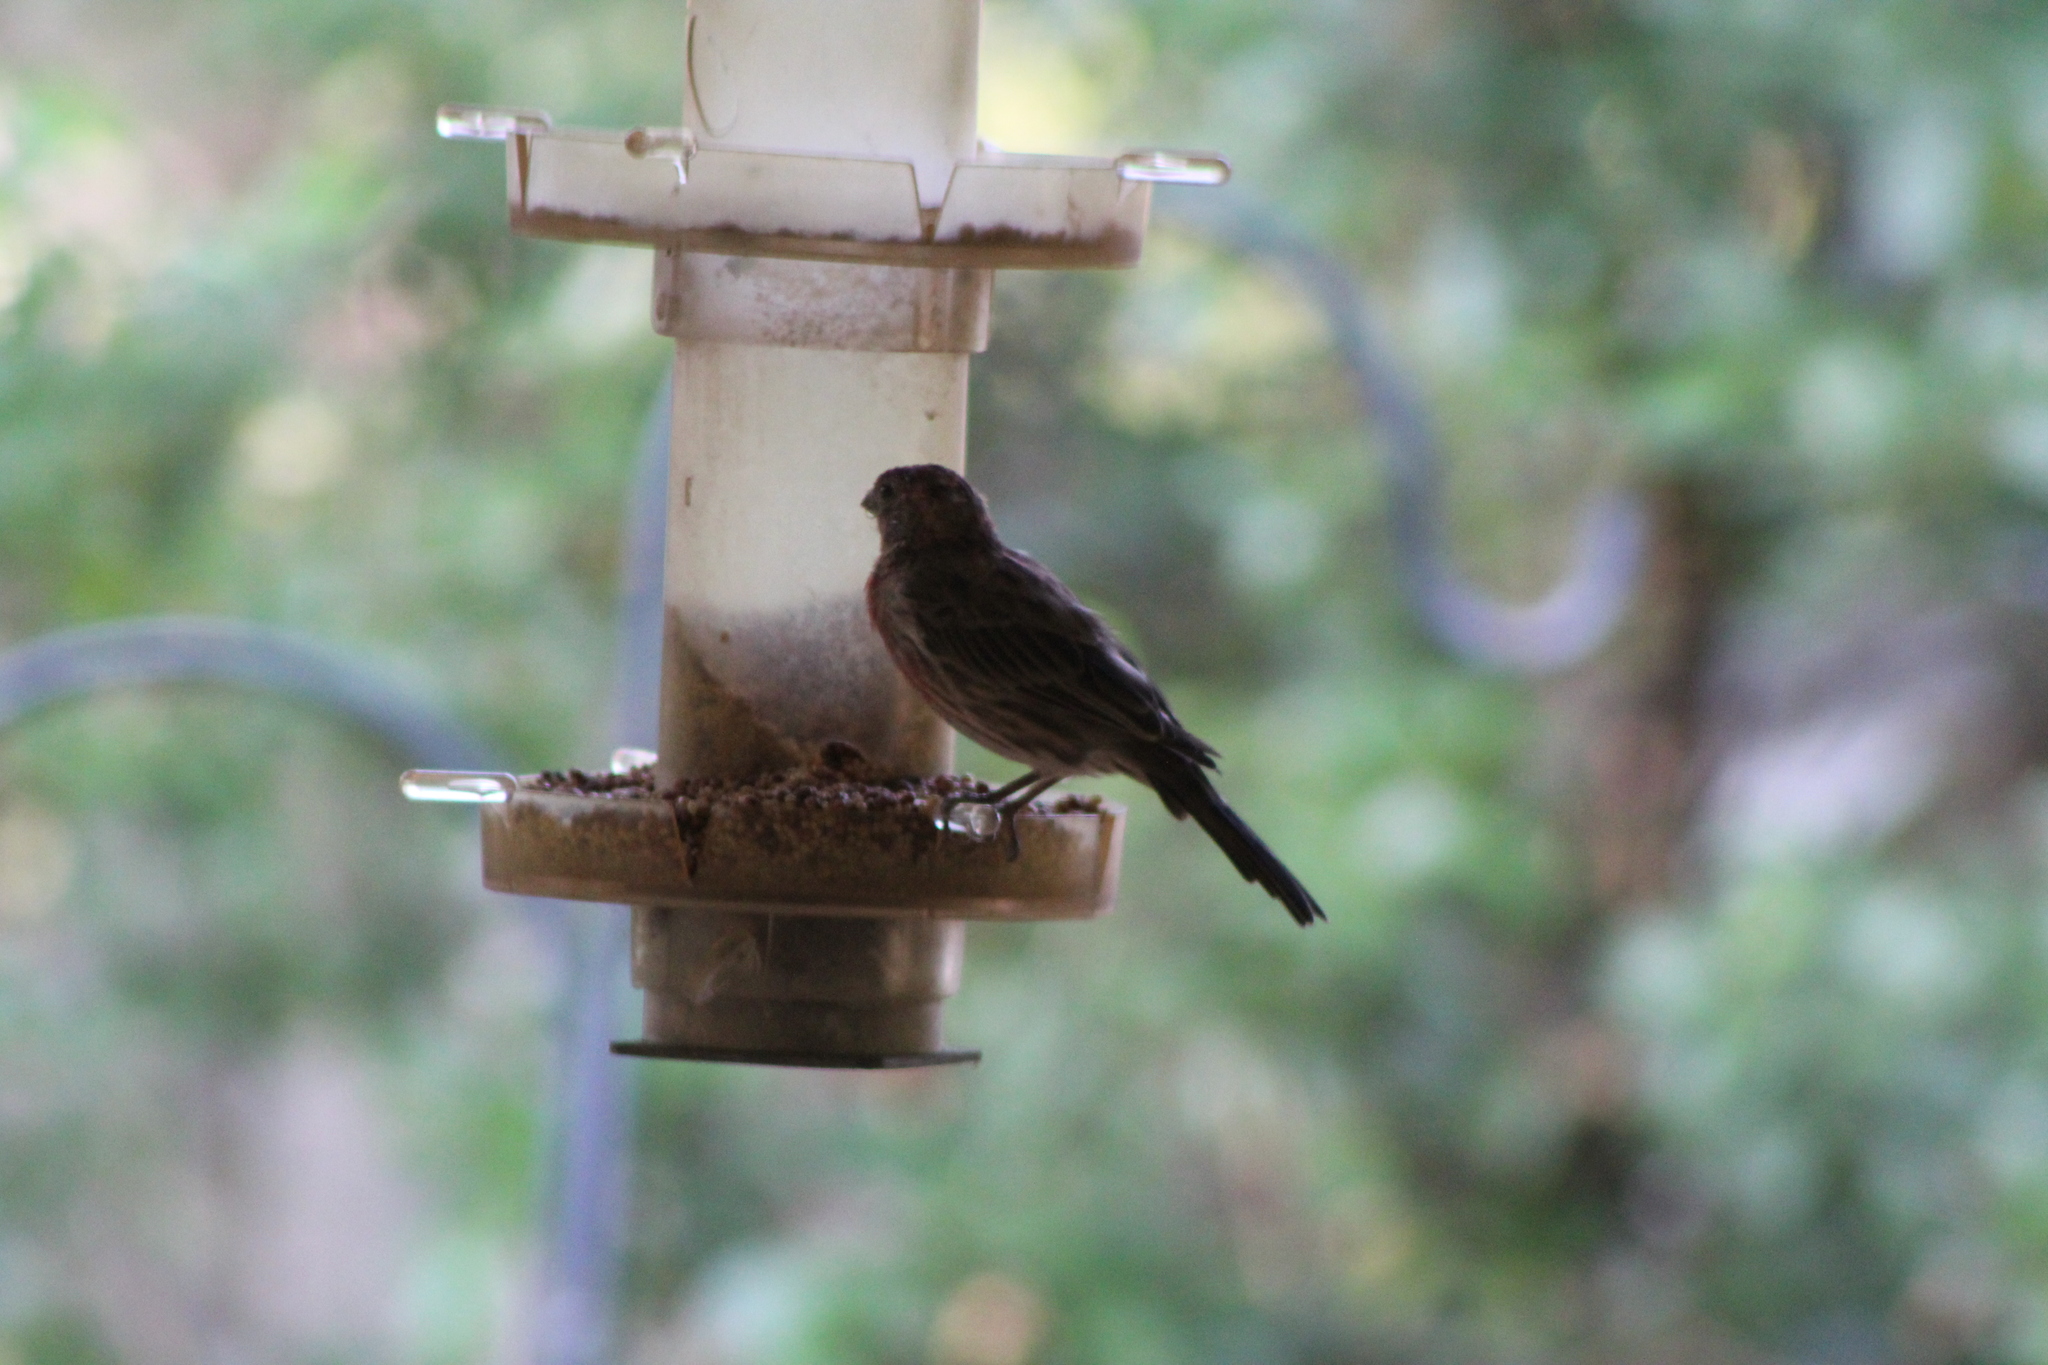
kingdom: Animalia
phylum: Chordata
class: Aves
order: Passeriformes
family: Fringillidae
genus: Haemorhous
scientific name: Haemorhous mexicanus
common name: House finch
